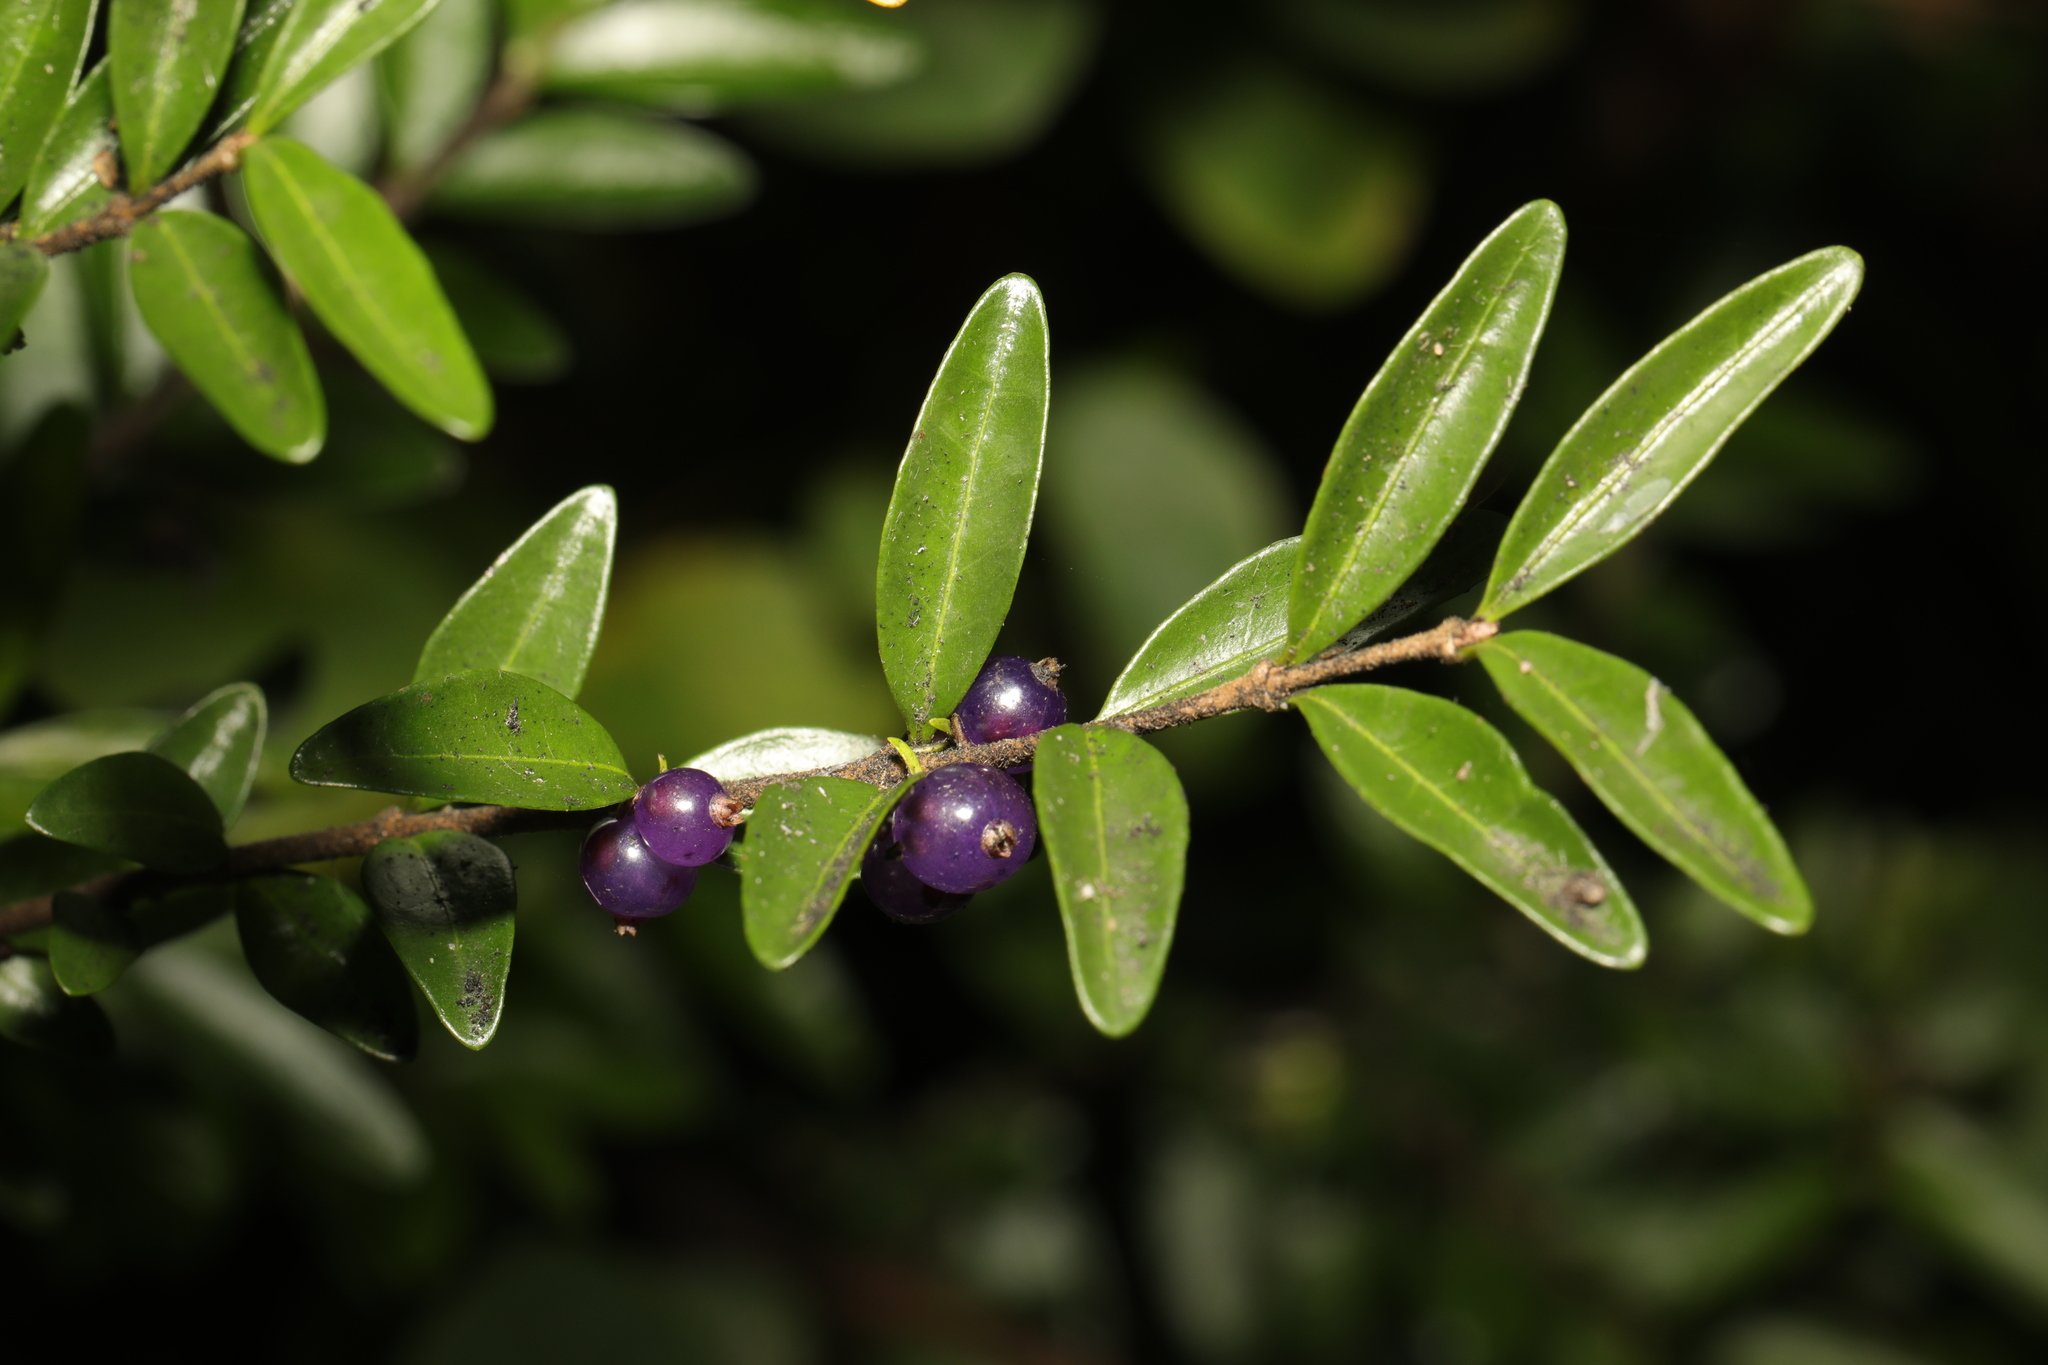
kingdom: Plantae
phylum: Tracheophyta
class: Magnoliopsida
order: Dipsacales
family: Caprifoliaceae
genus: Lonicera
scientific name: Lonicera ligustrina
